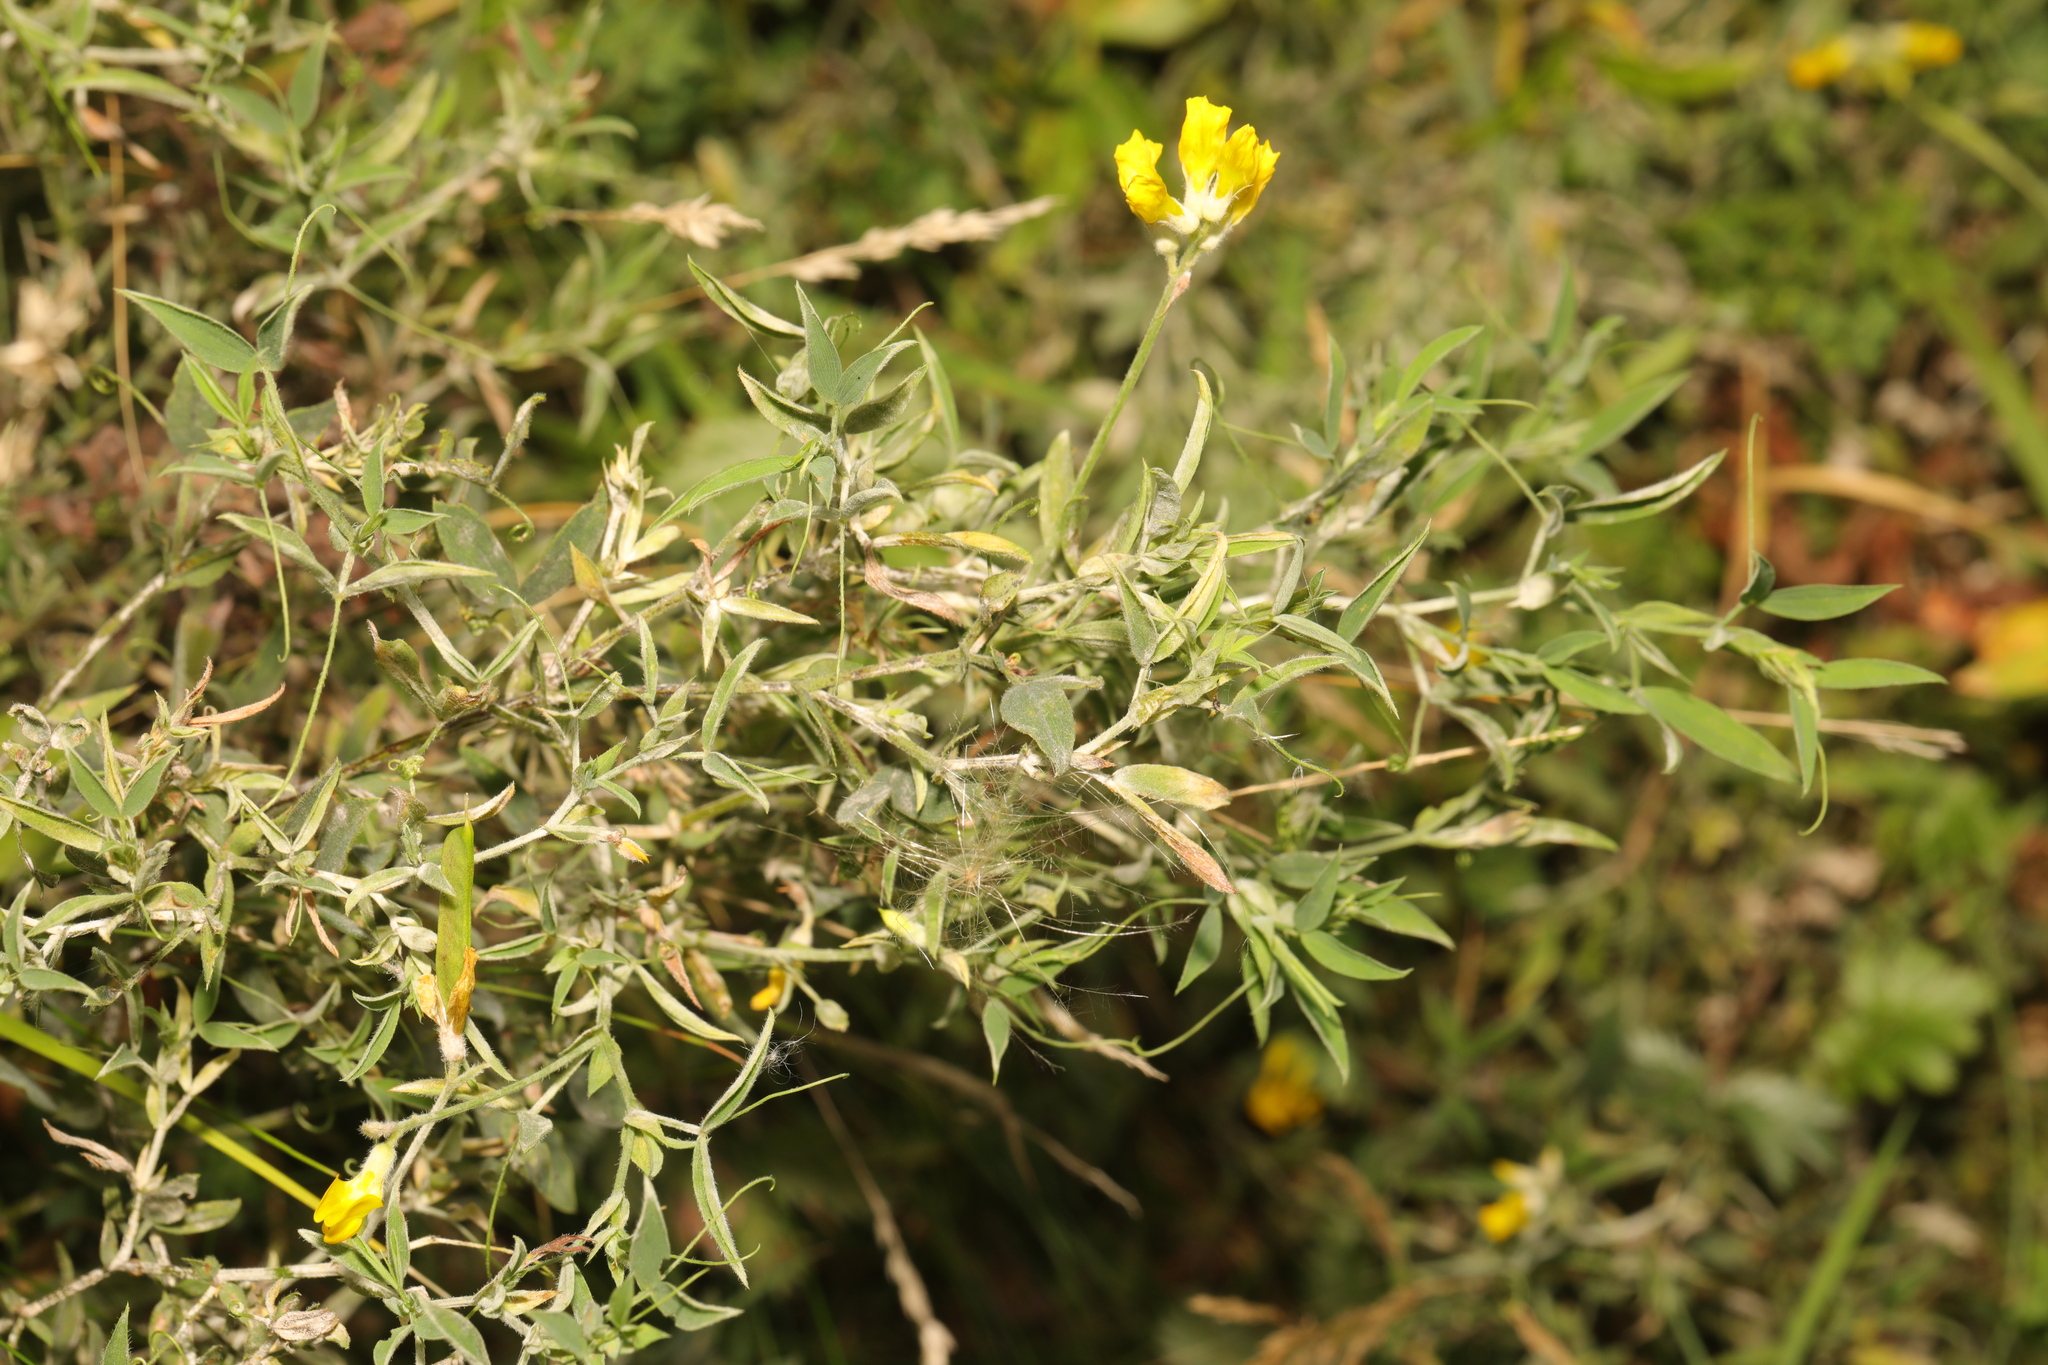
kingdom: Plantae
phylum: Tracheophyta
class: Magnoliopsida
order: Fabales
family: Fabaceae
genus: Lathyrus
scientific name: Lathyrus pratensis
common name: Meadow vetchling
